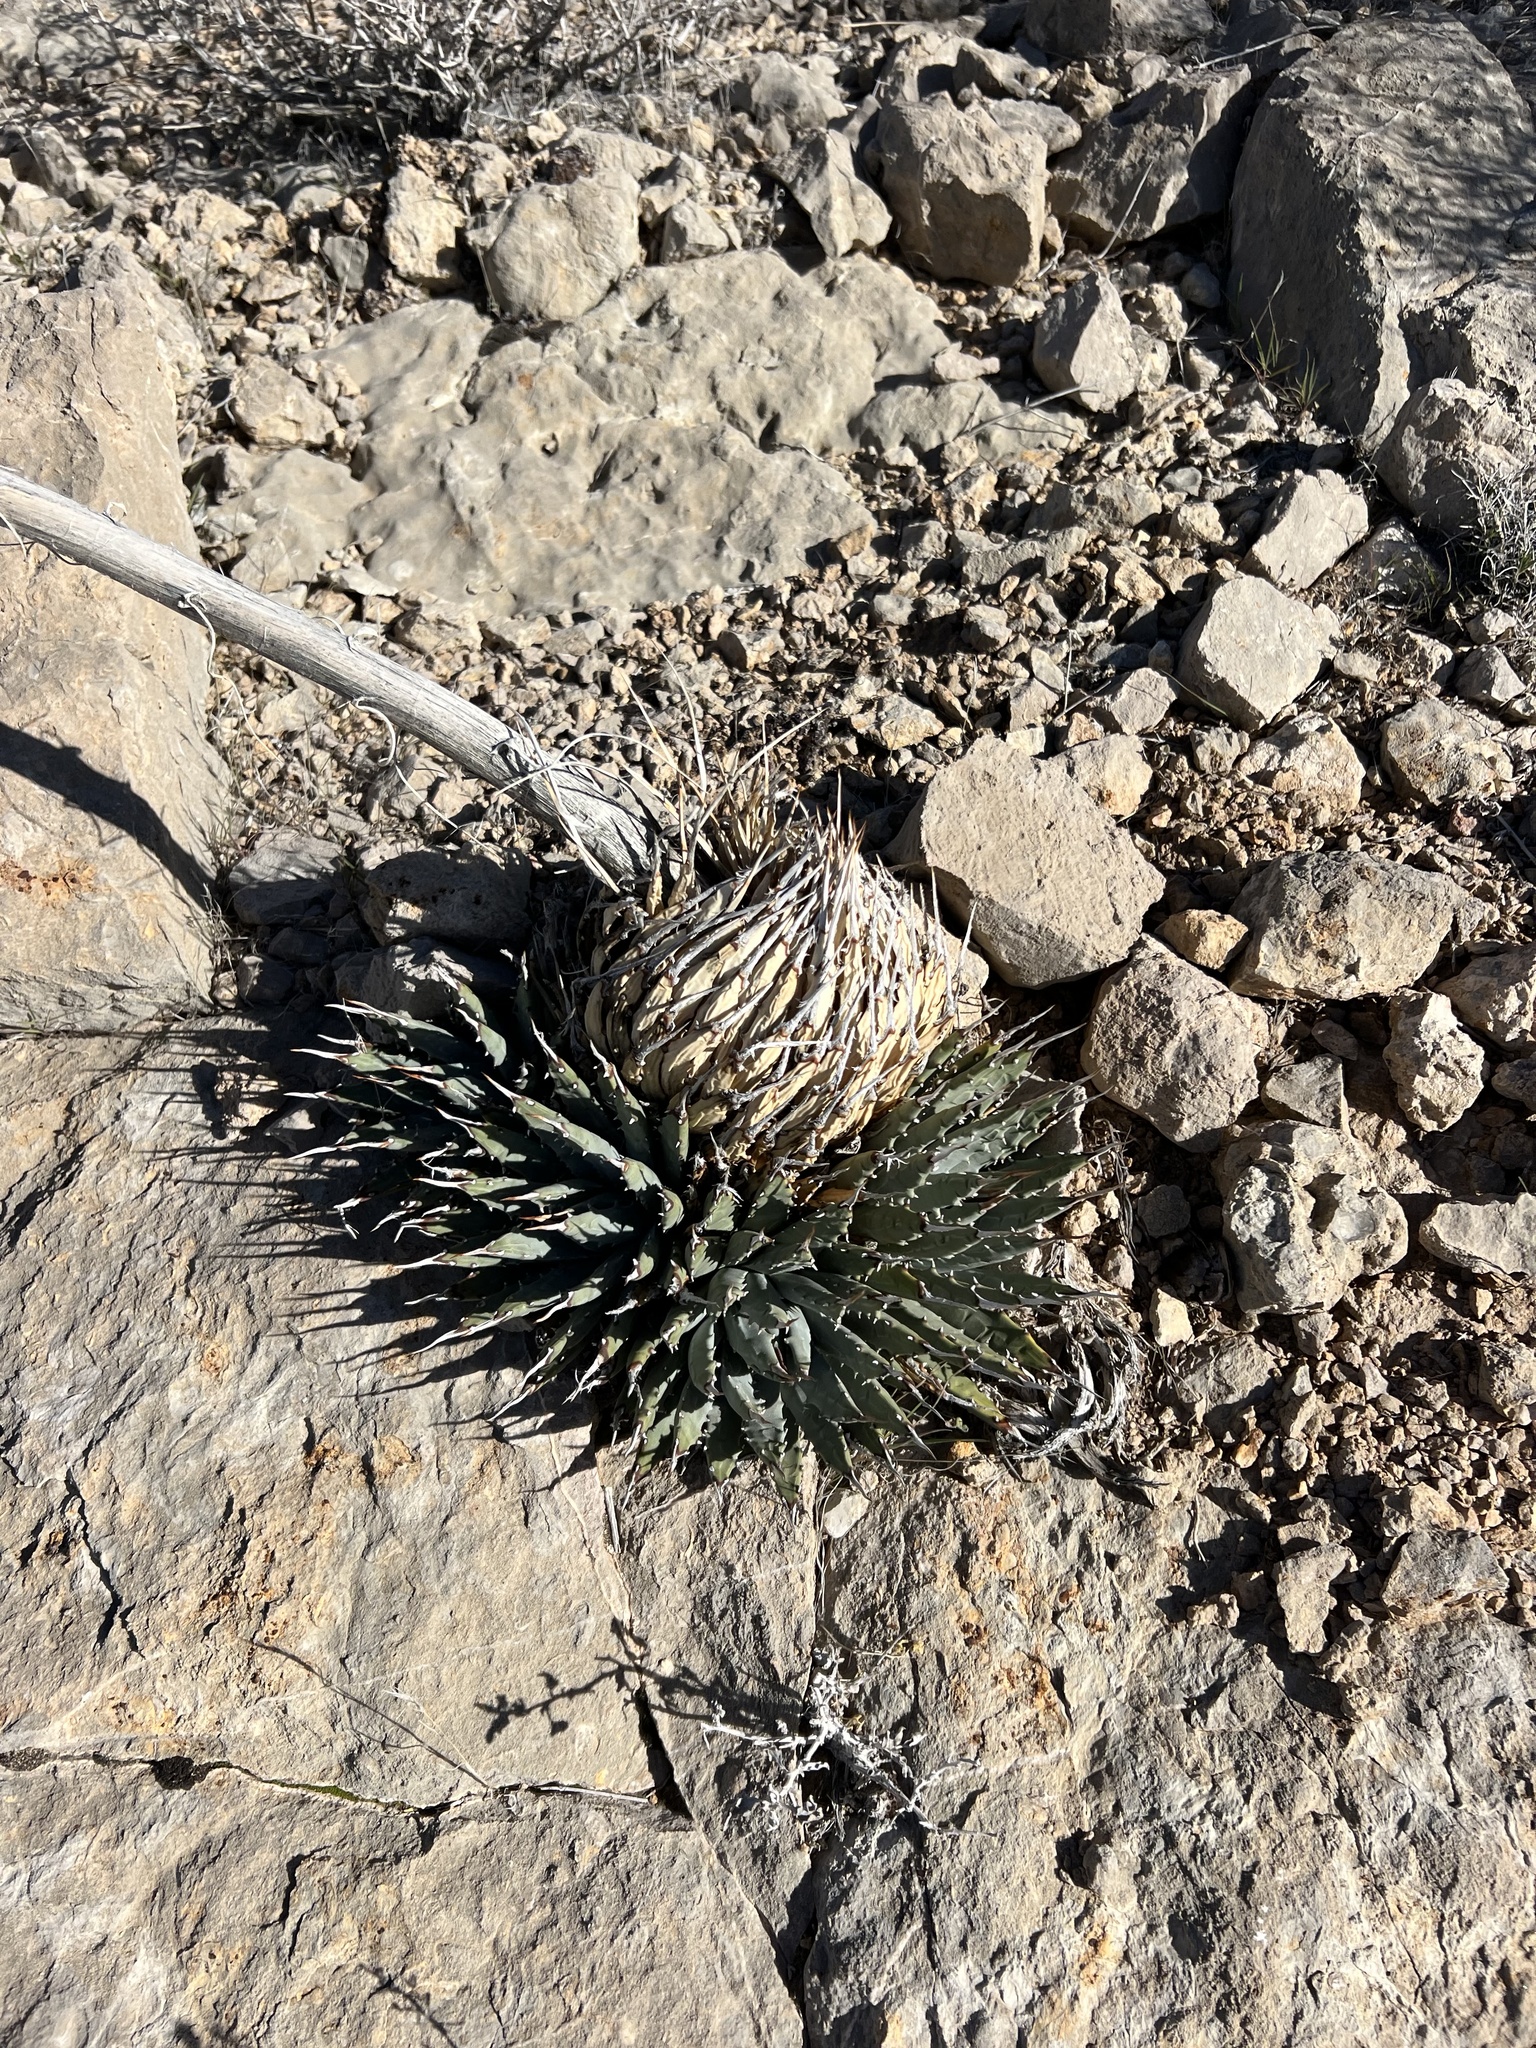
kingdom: Plantae
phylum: Tracheophyta
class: Liliopsida
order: Asparagales
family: Asparagaceae
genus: Agave
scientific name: Agave utahensis
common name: Utah agave
